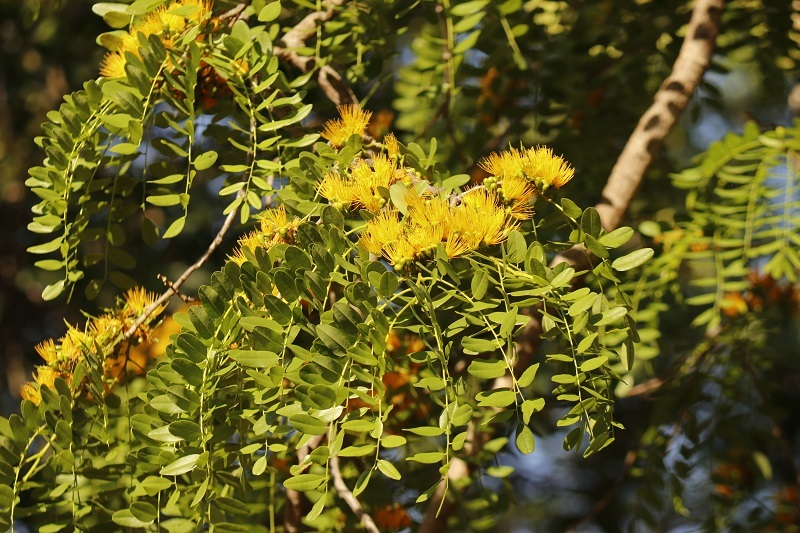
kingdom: Plantae
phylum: Tracheophyta
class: Magnoliopsida
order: Fabales
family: Fabaceae
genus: Cordyla
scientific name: Cordyla africana
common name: Wild mango
